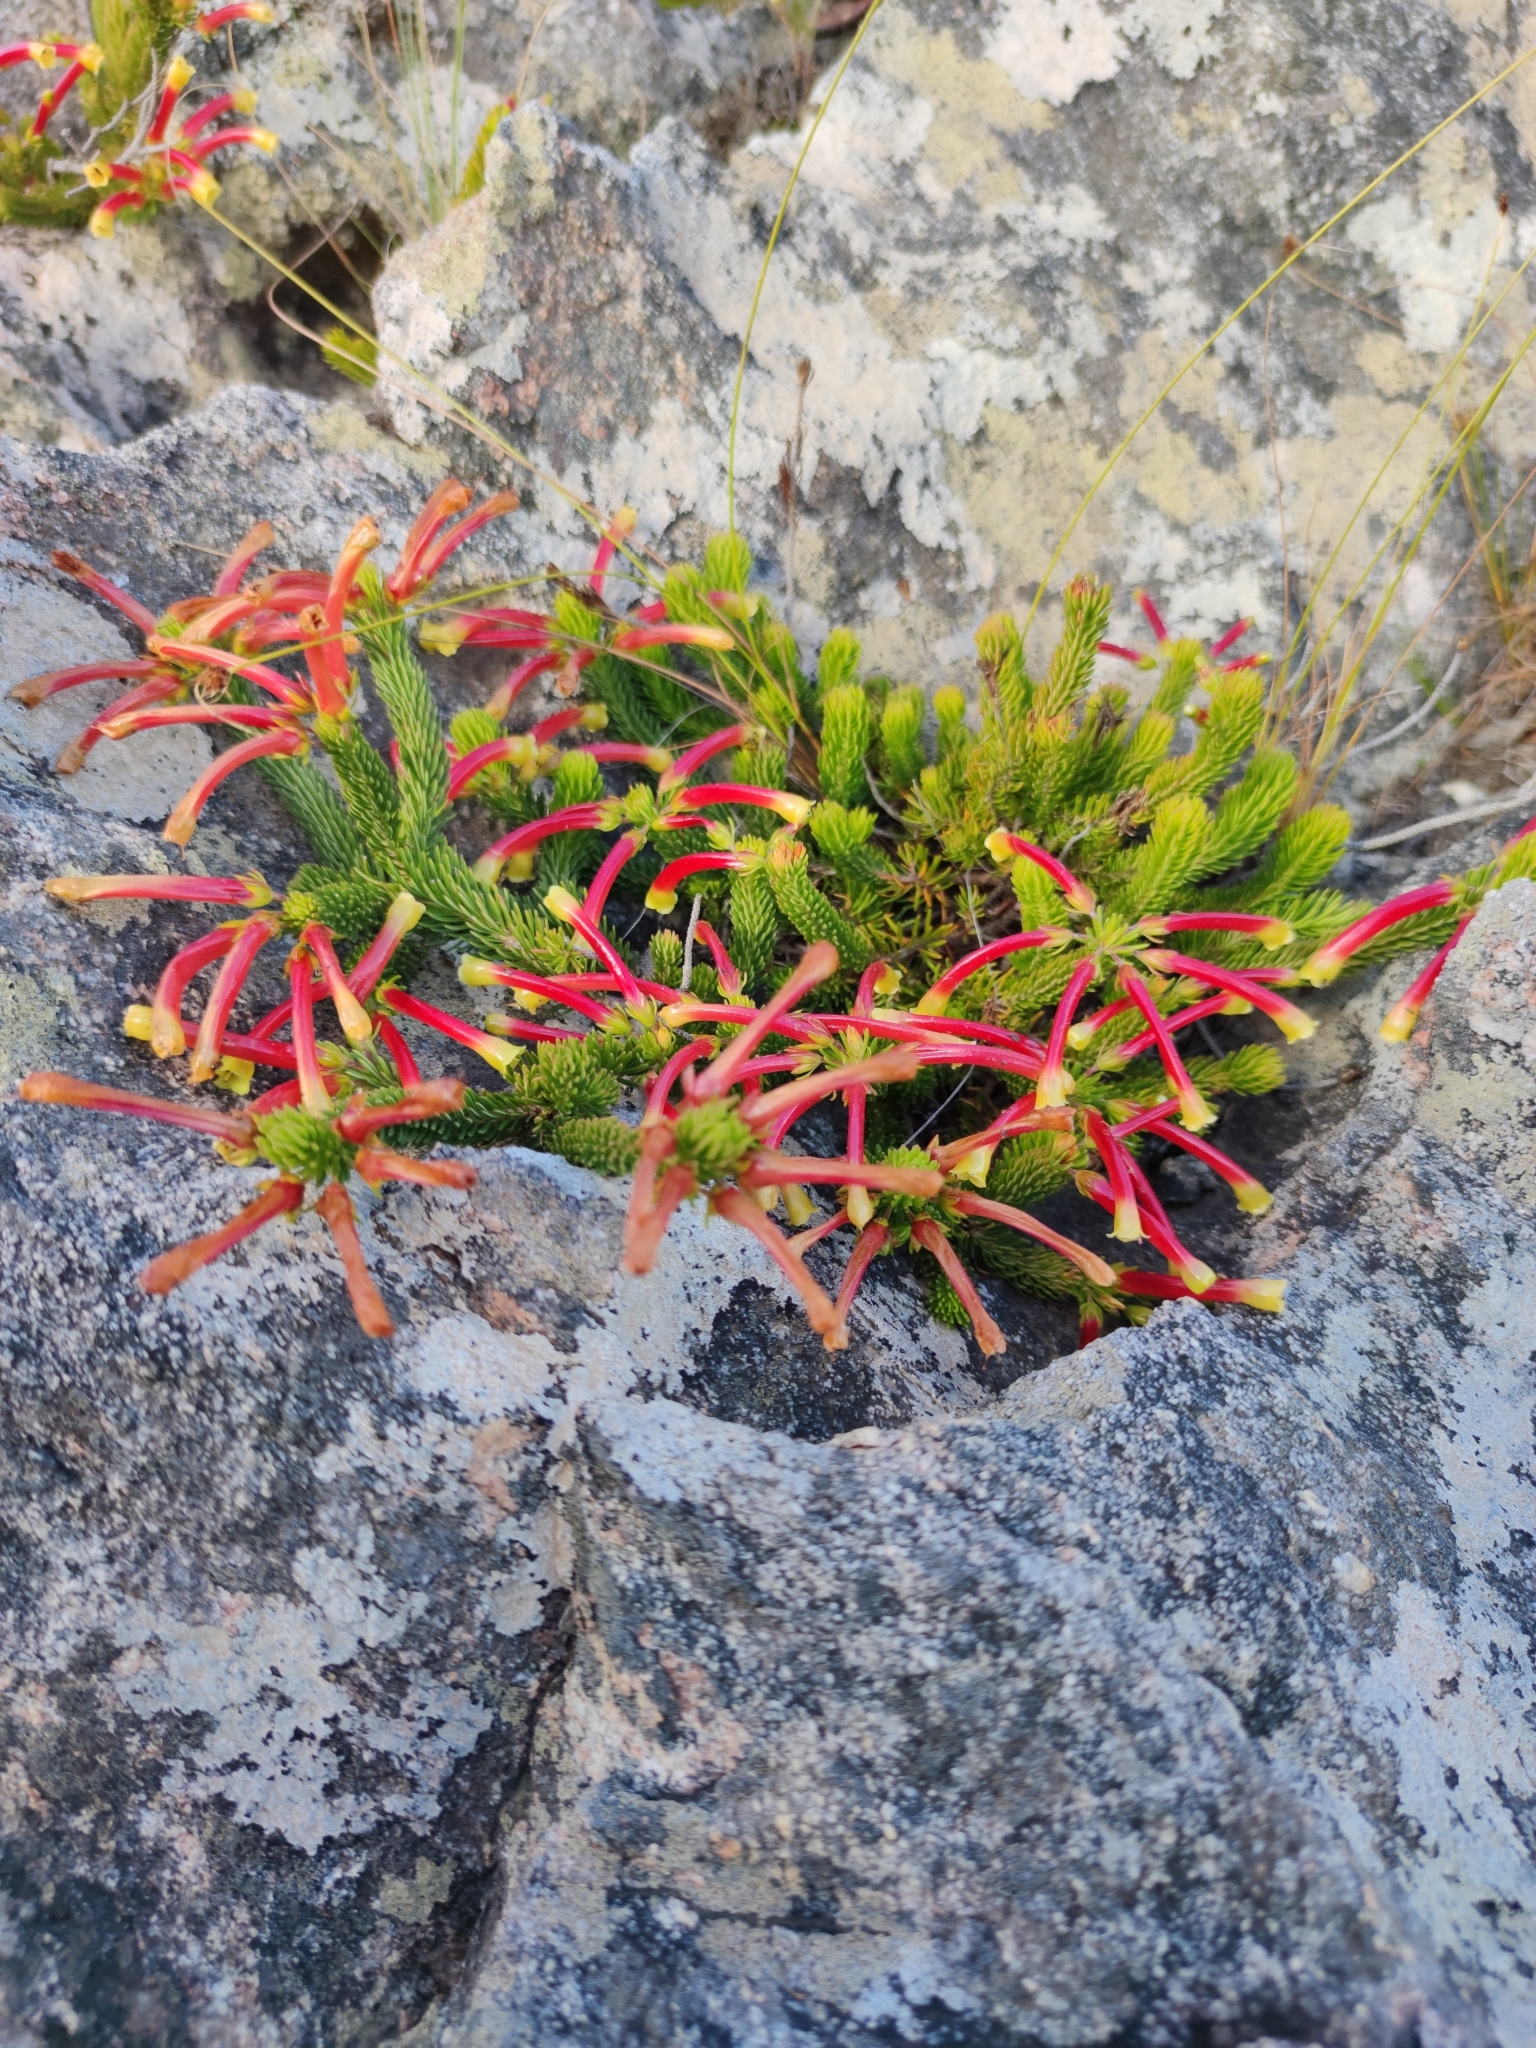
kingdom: Plantae
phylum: Tracheophyta
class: Magnoliopsida
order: Ericales
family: Ericaceae
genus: Erica
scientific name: Erica hibbertia
